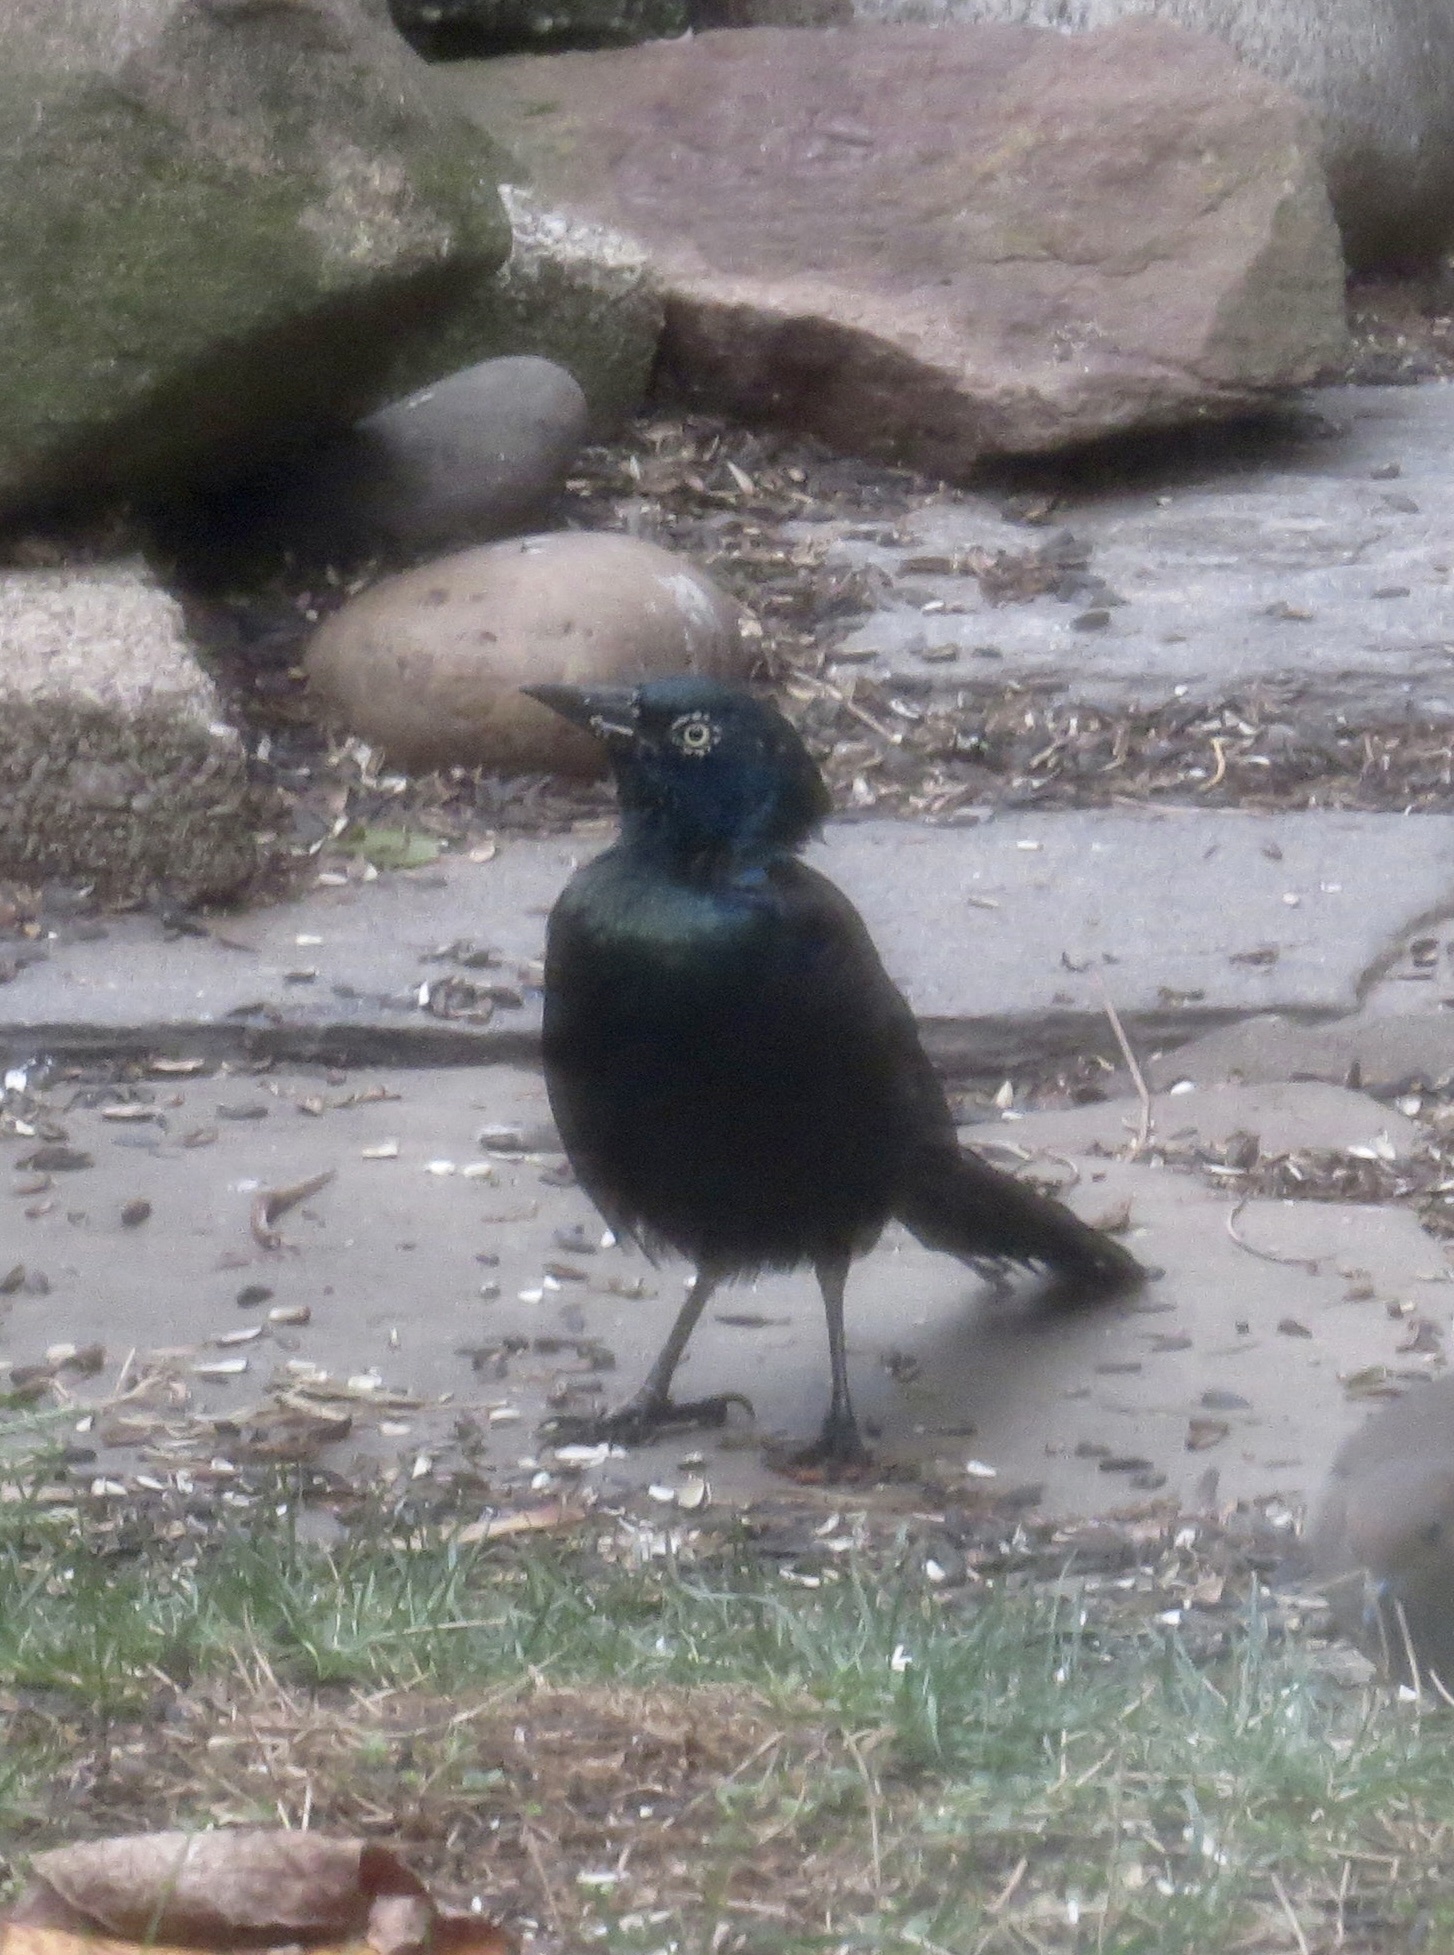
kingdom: Animalia
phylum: Chordata
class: Aves
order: Passeriformes
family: Icteridae
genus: Quiscalus
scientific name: Quiscalus quiscula
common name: Common grackle
